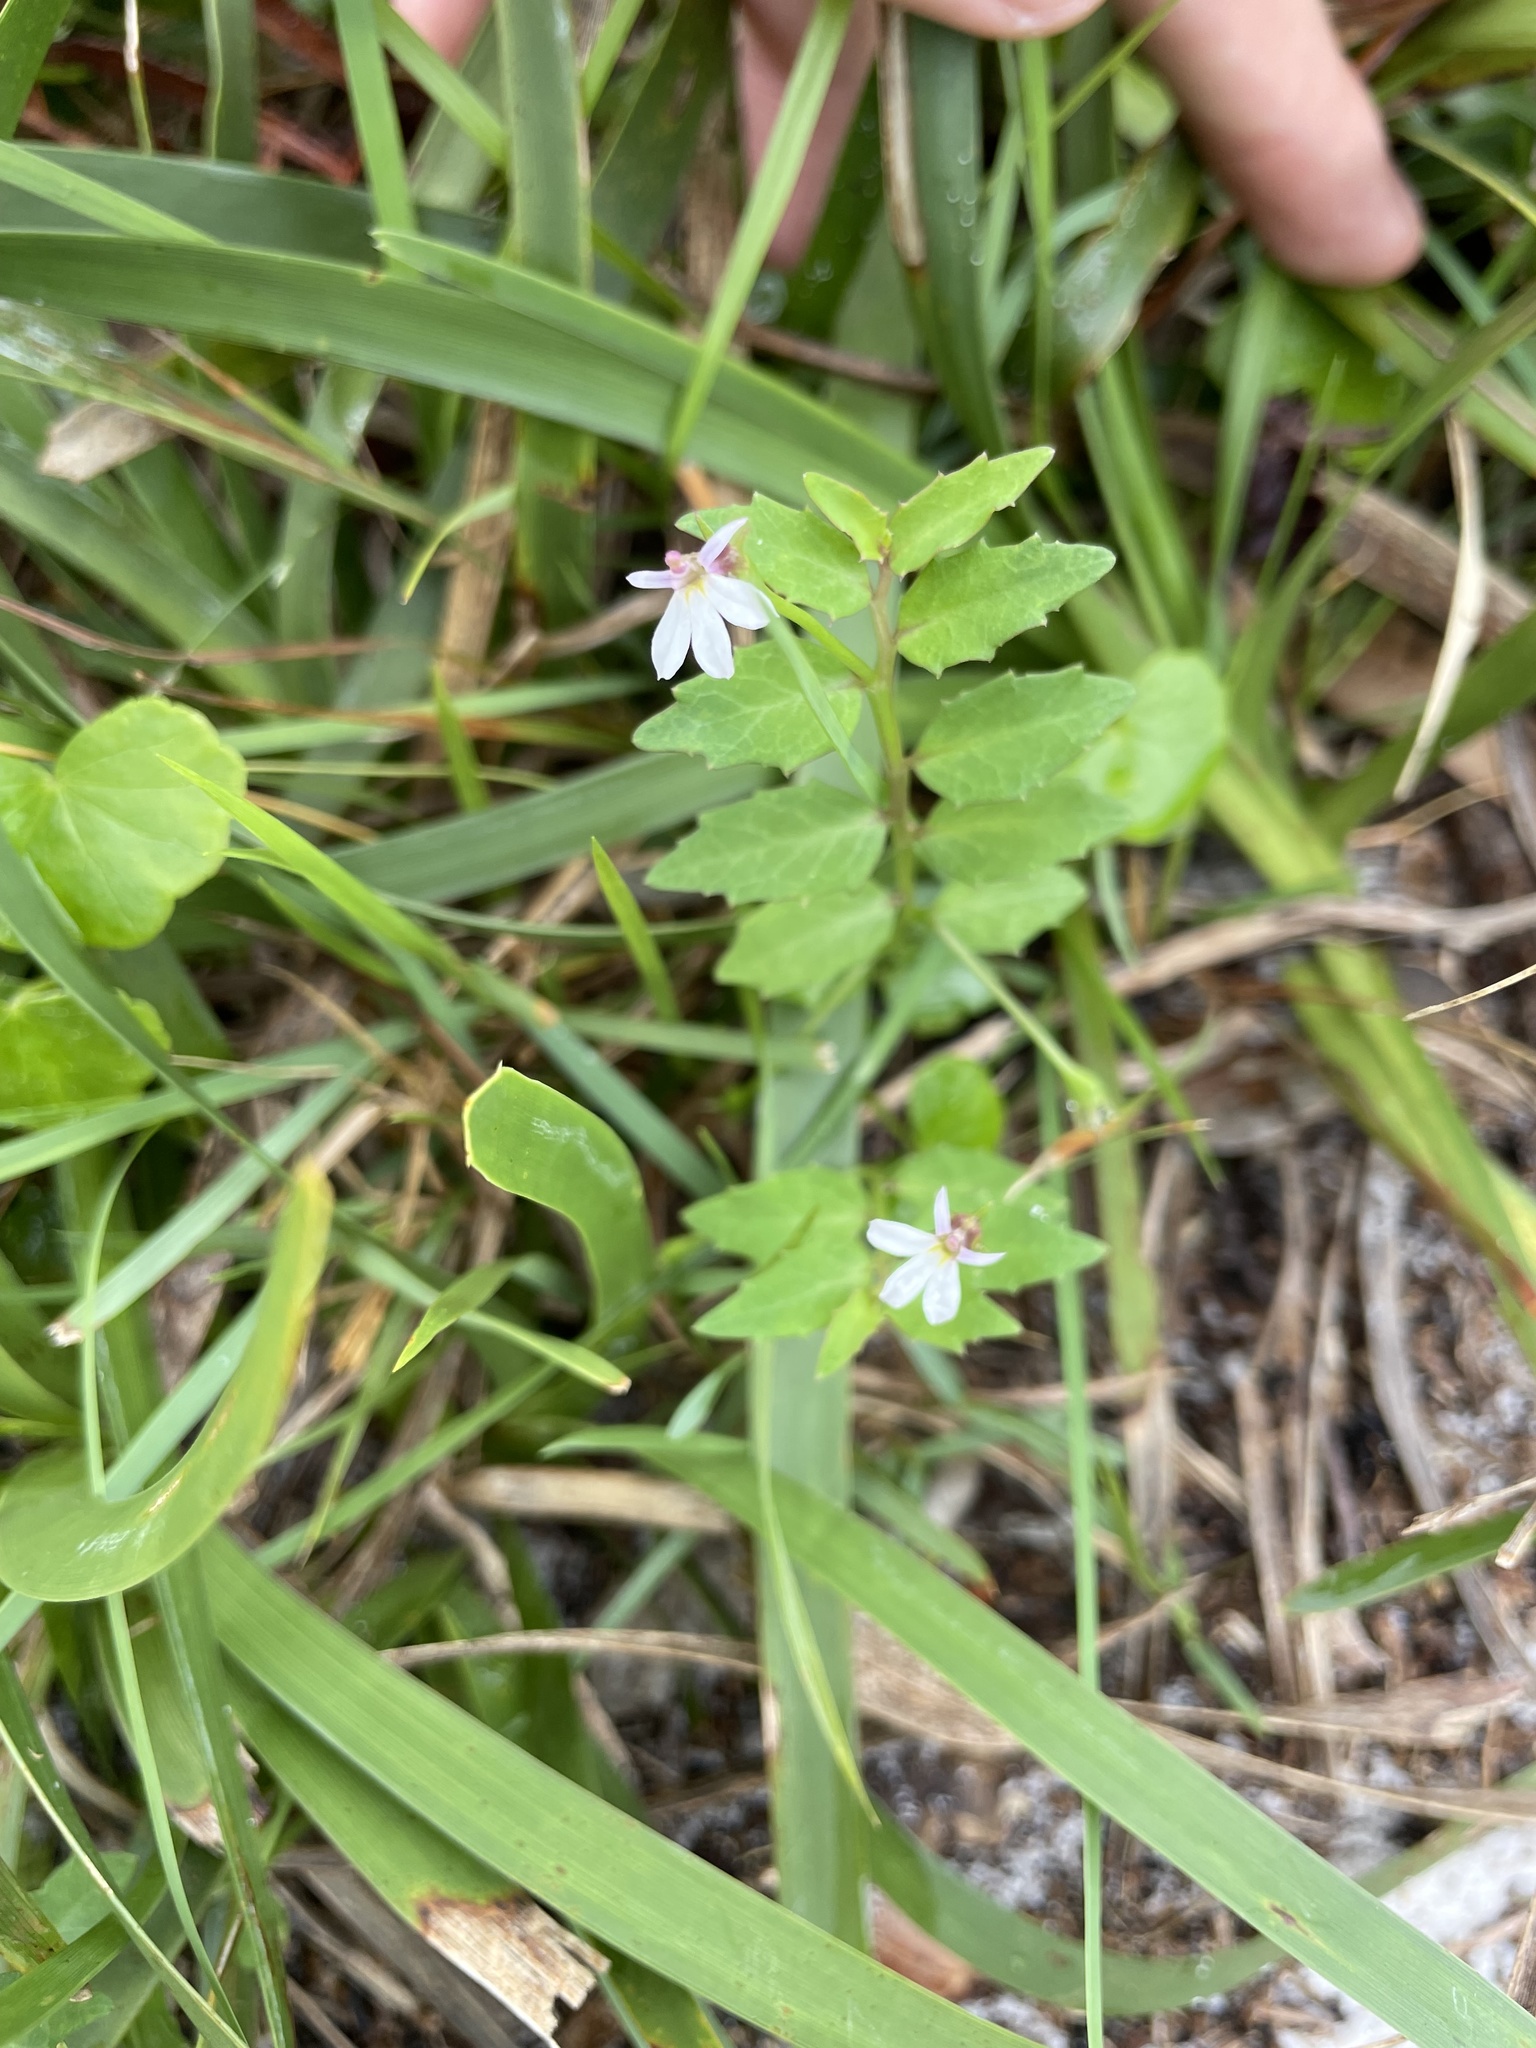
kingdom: Plantae
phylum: Tracheophyta
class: Magnoliopsida
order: Asterales
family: Campanulaceae
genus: Lobelia
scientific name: Lobelia purpurascens
